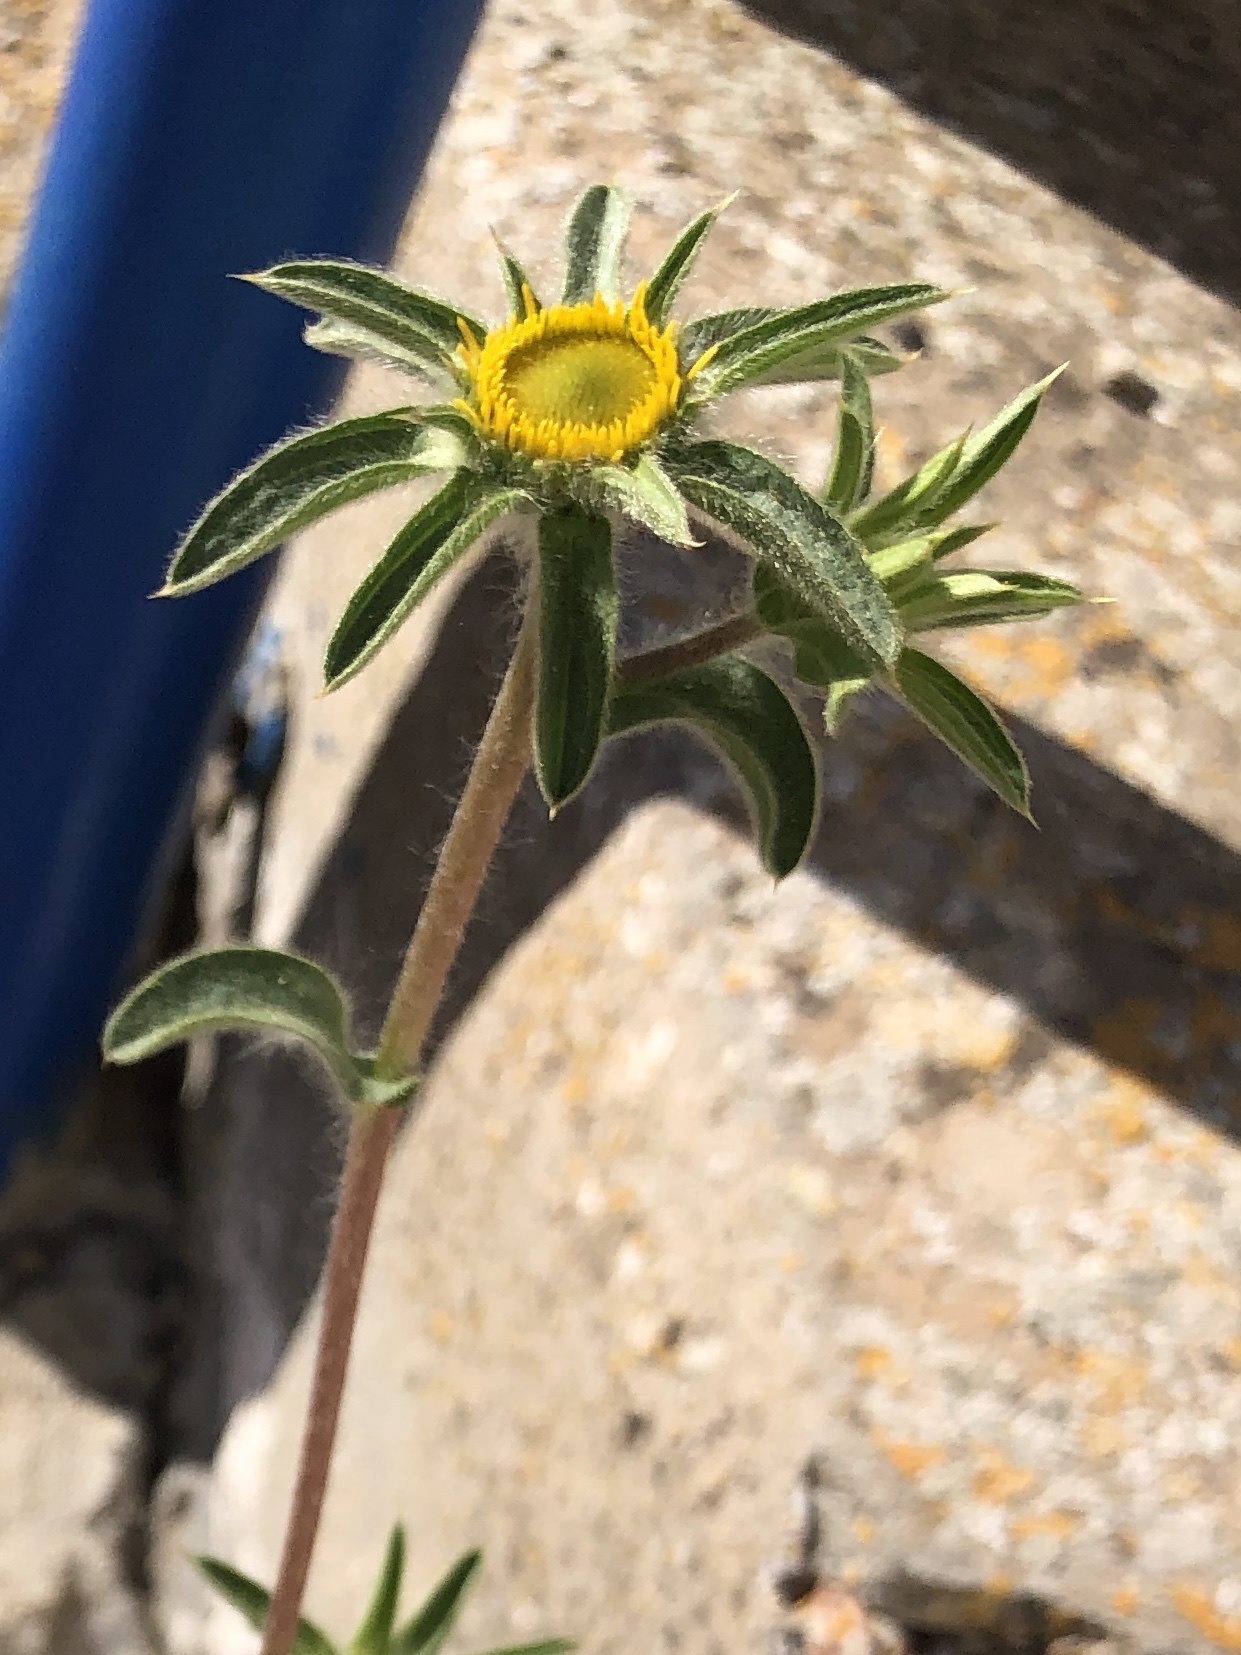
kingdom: Plantae
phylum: Tracheophyta
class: Magnoliopsida
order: Asterales
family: Asteraceae
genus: Pallenis
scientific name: Pallenis spinosa
